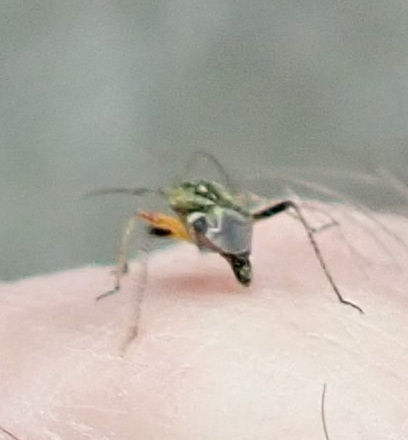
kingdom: Animalia
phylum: Arthropoda
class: Insecta
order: Hemiptera
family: Miridae
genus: Harpocera
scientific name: Harpocera thoracica
